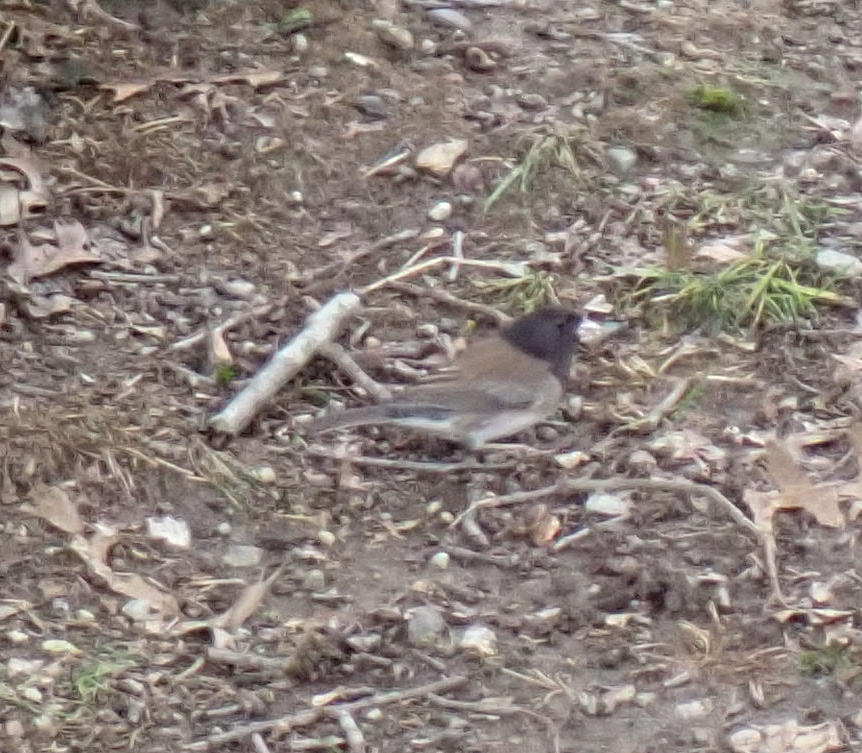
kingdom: Animalia
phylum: Chordata
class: Aves
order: Passeriformes
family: Passerellidae
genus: Junco
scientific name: Junco hyemalis
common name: Dark-eyed junco
